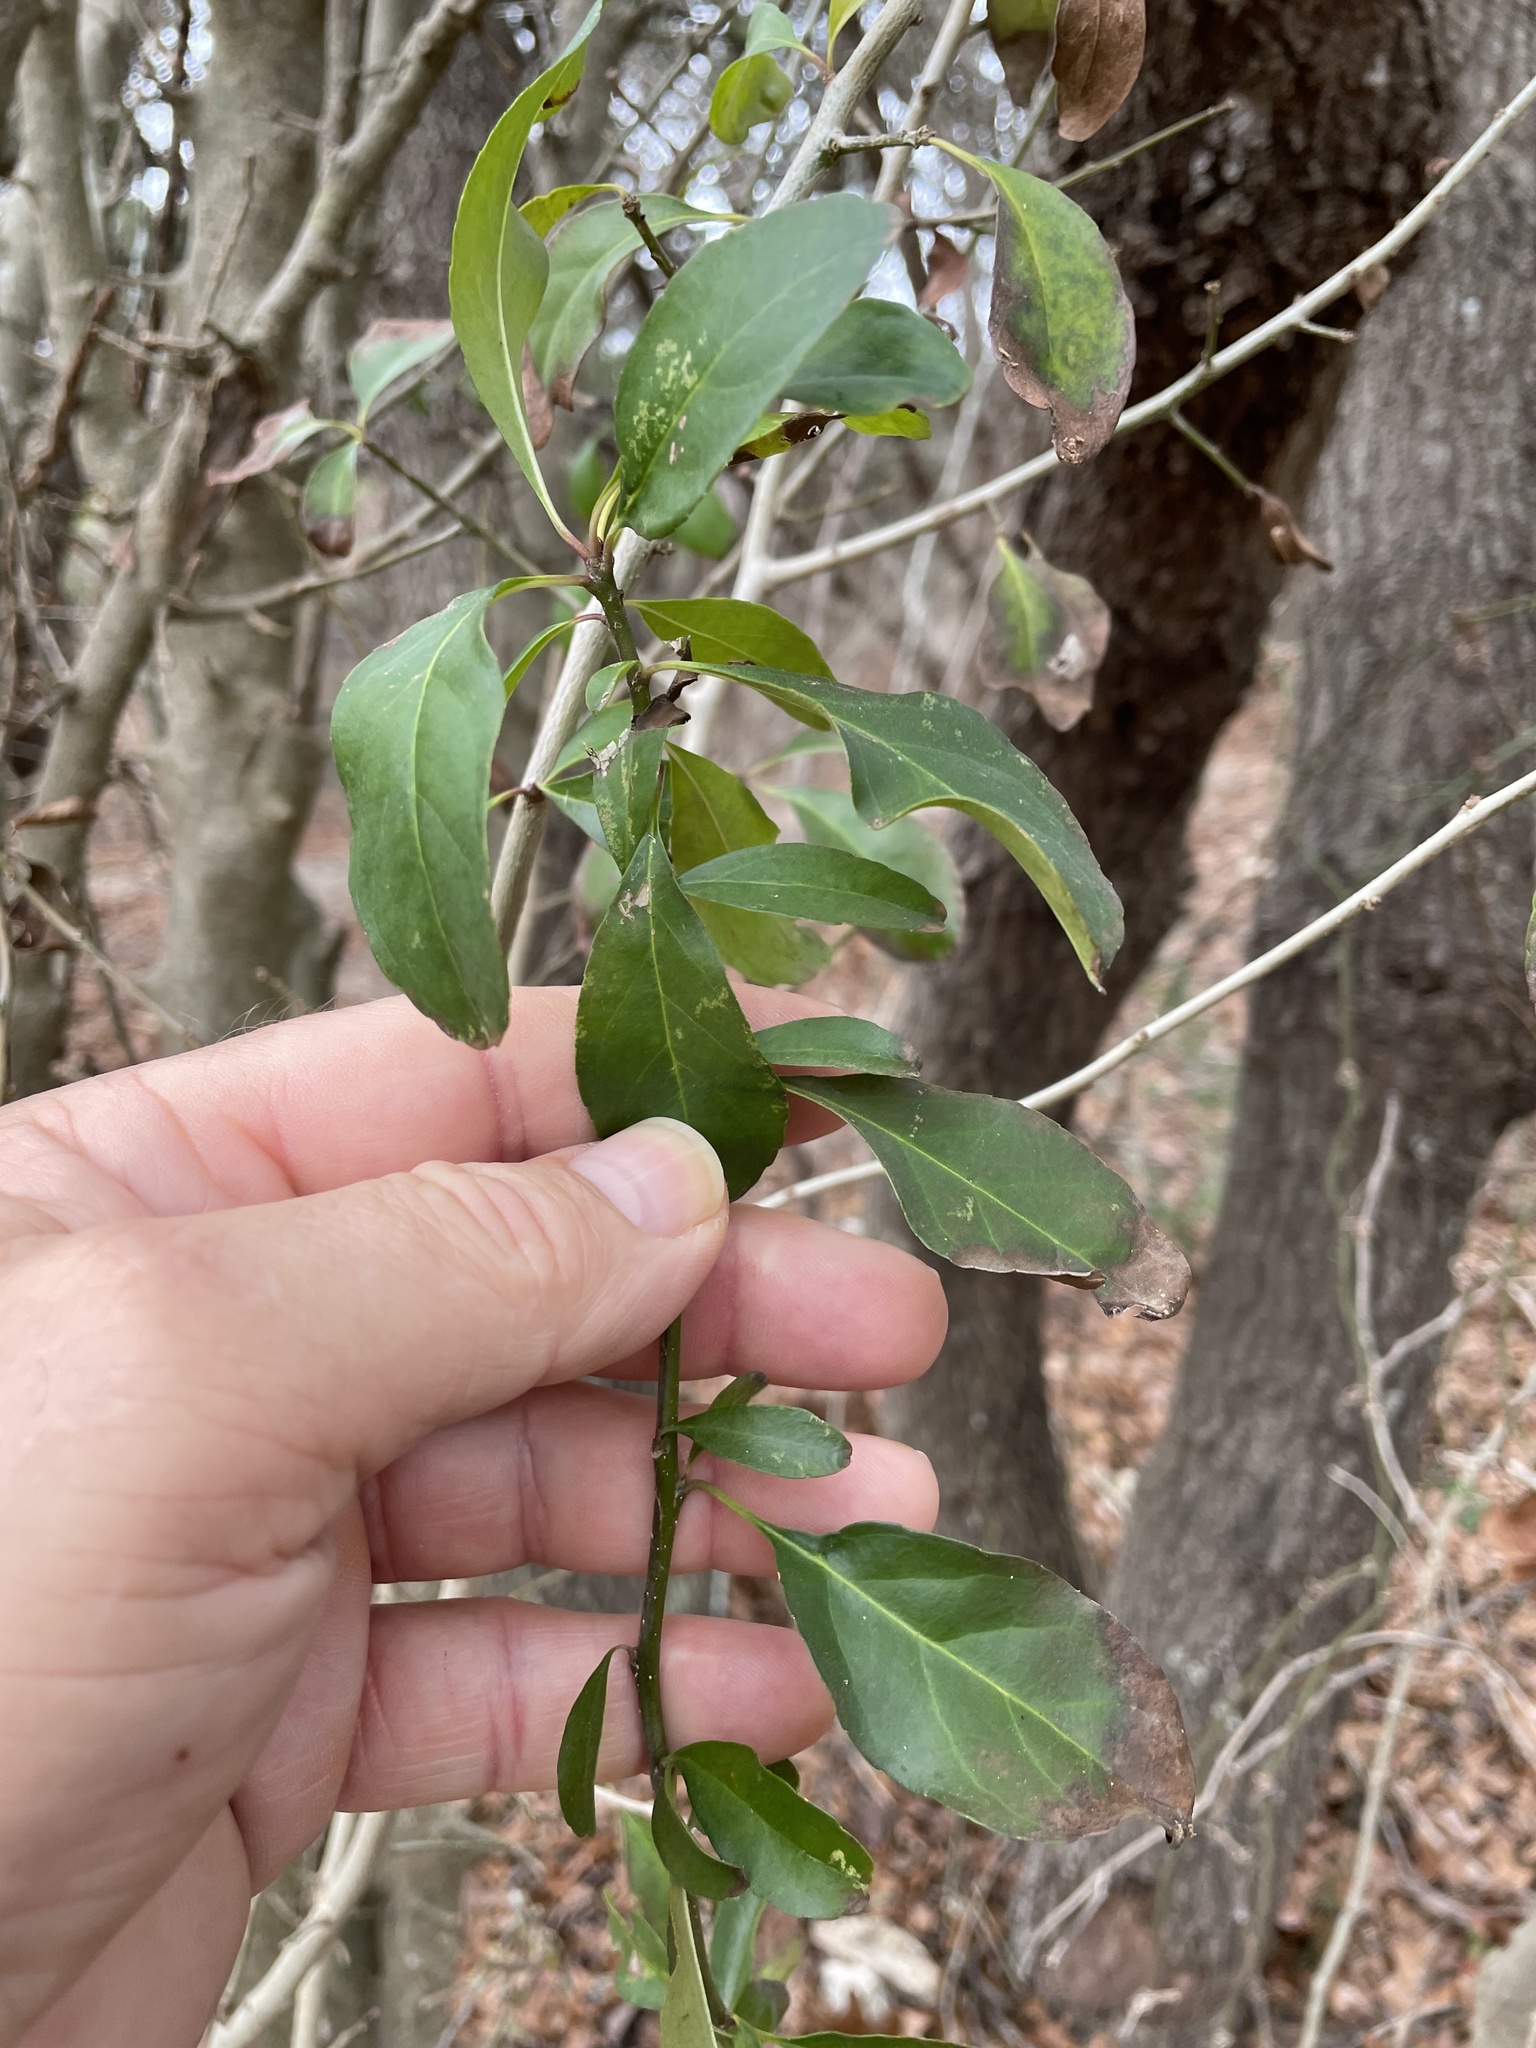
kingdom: Plantae
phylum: Tracheophyta
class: Magnoliopsida
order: Aquifoliales
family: Aquifoliaceae
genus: Ilex
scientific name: Ilex decidua
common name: Possum-haw
